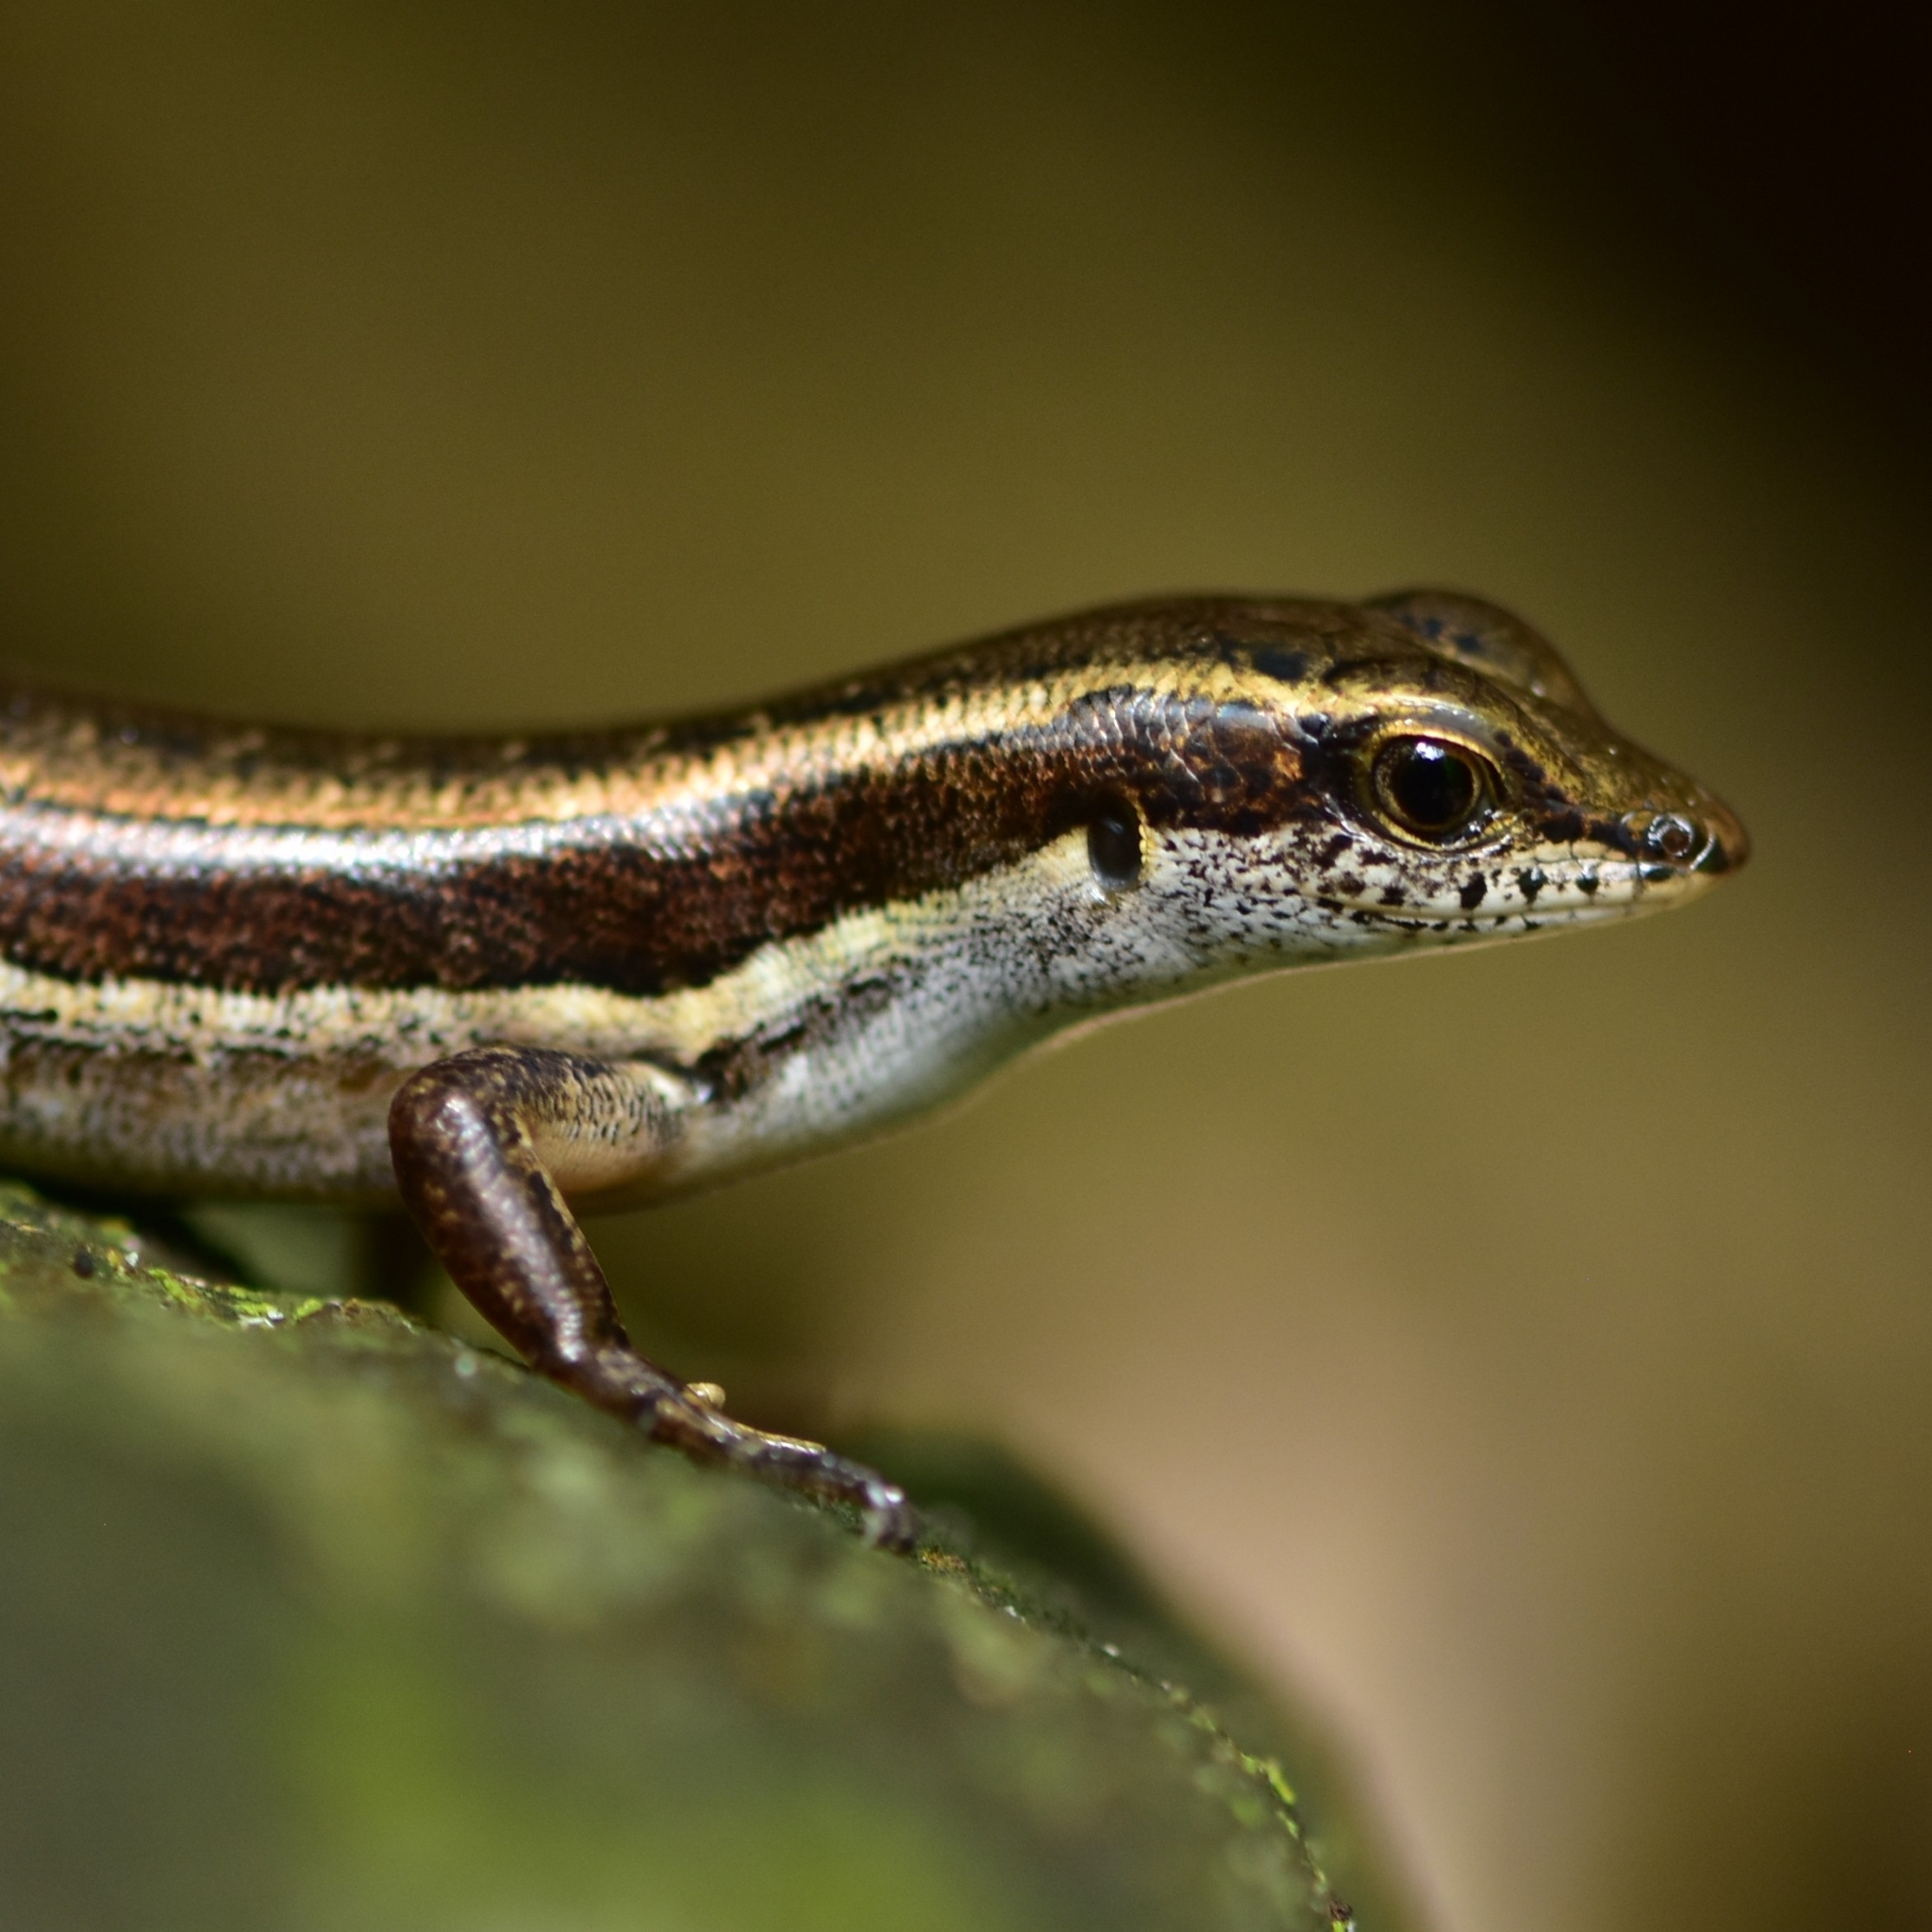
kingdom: Animalia
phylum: Chordata
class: Squamata
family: Scincidae
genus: Sphenomorphus
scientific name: Sphenomorphus dussumieri
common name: Dussumier's forest skink
